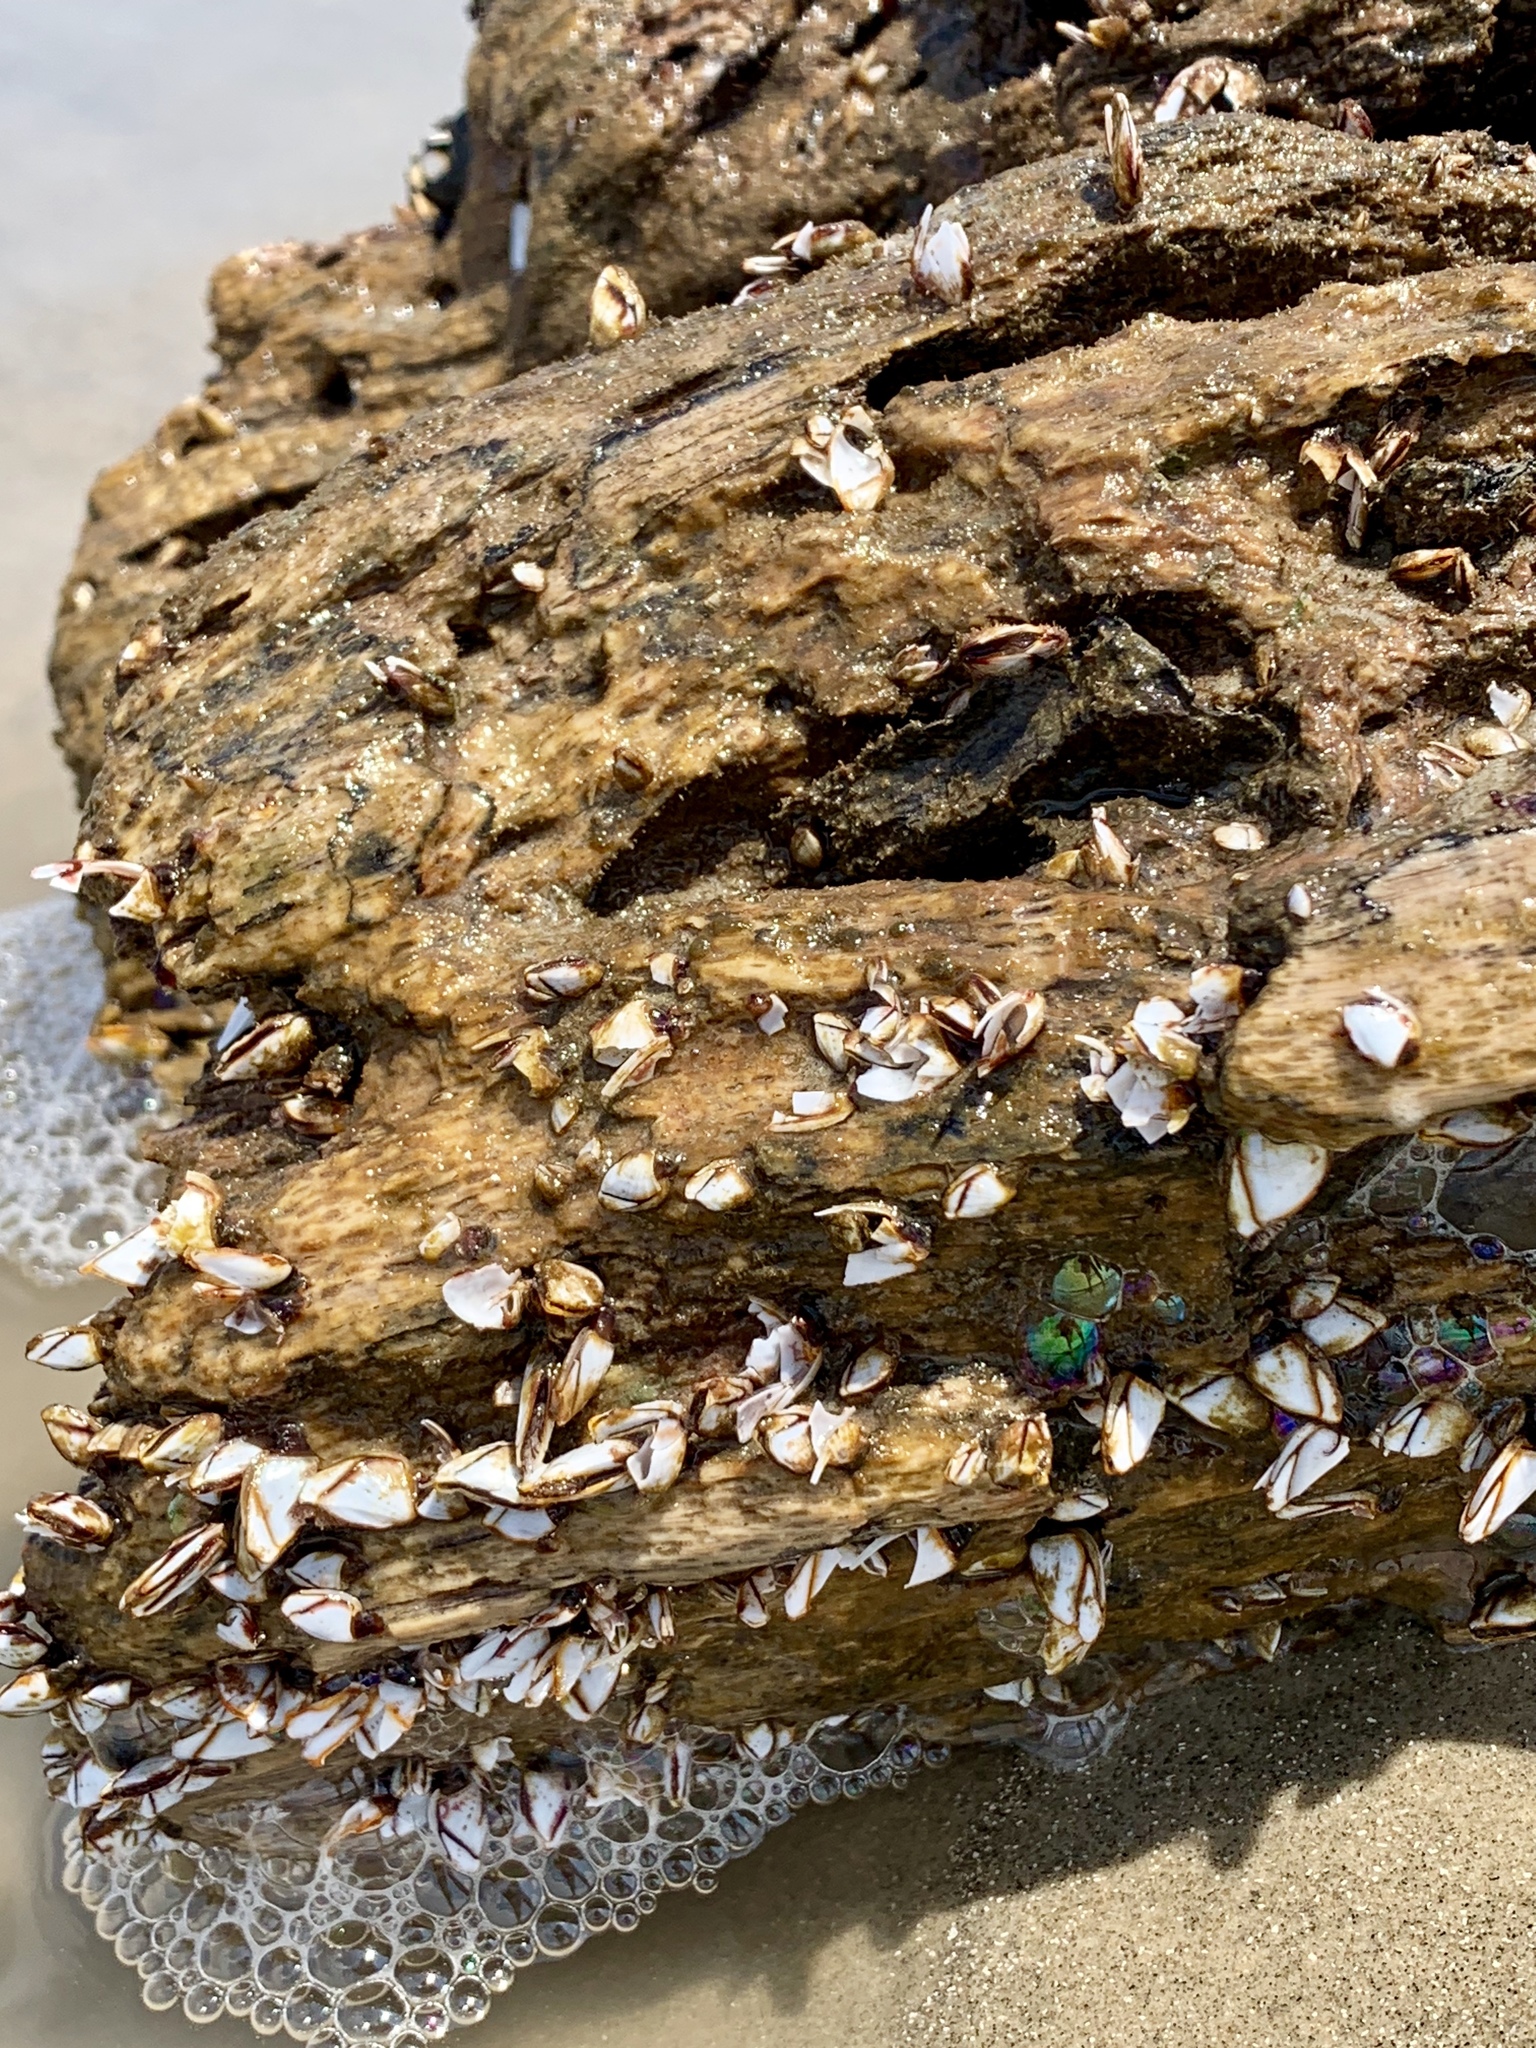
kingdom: Animalia
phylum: Arthropoda
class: Maxillopoda
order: Pedunculata
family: Lepadidae
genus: Lepas
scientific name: Lepas anatifera
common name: Common goose barnacle
